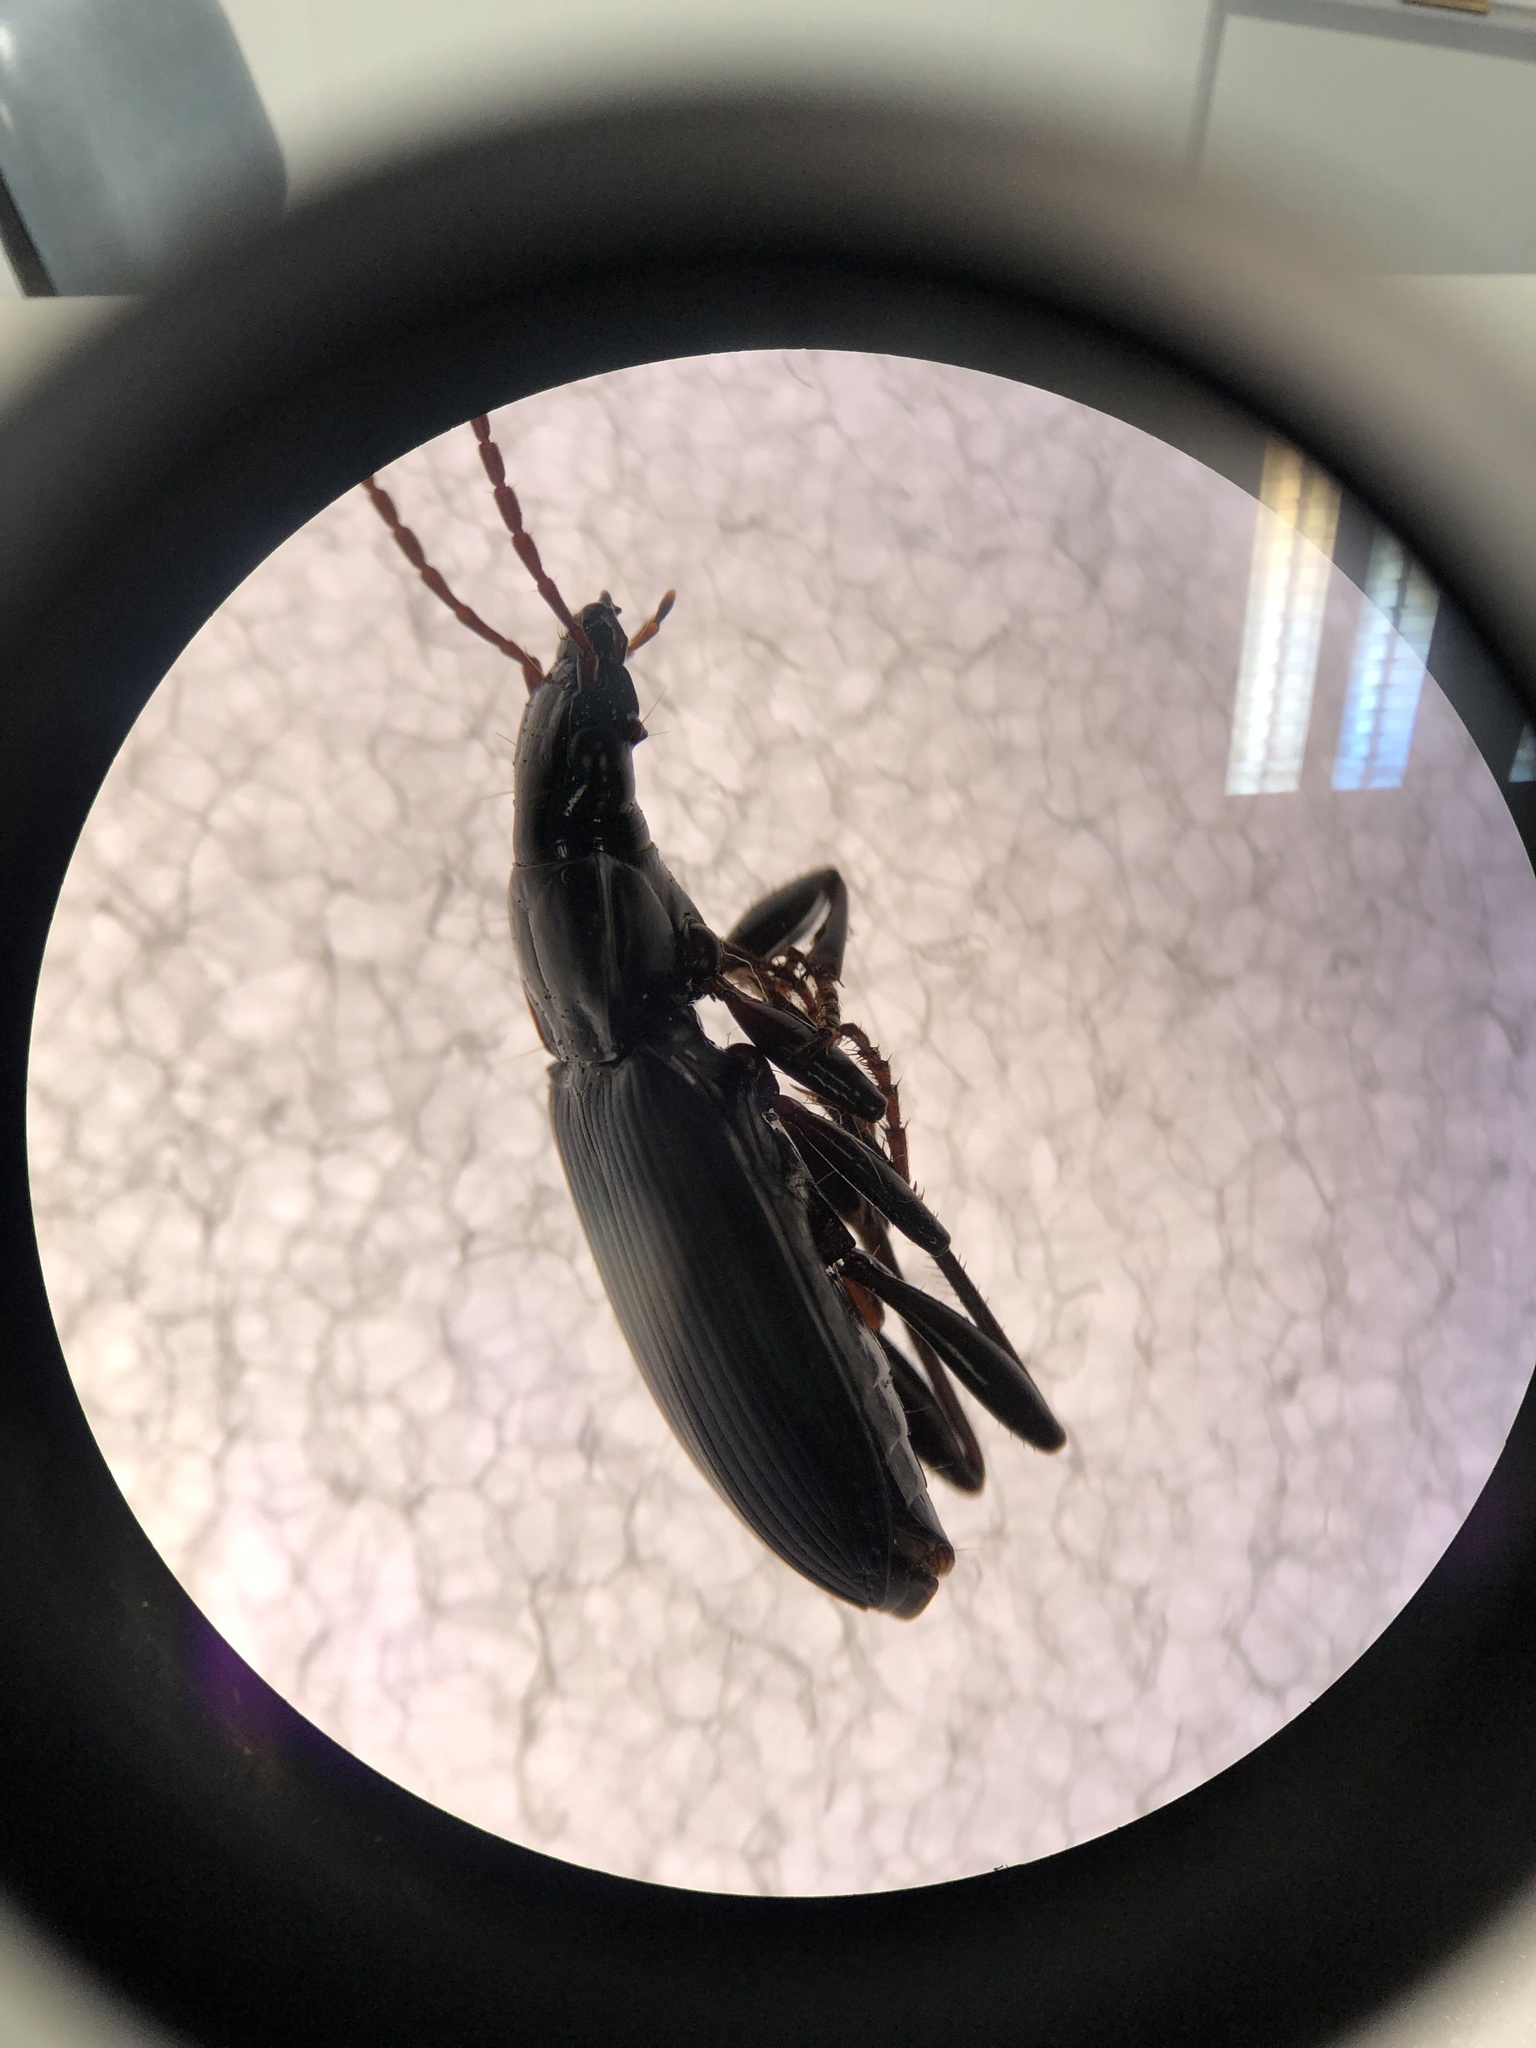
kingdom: Animalia
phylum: Arthropoda
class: Insecta
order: Coleoptera
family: Carabidae
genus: Laemostenus
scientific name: Laemostenus complanatus
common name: Cosmopolitan ground beetle
